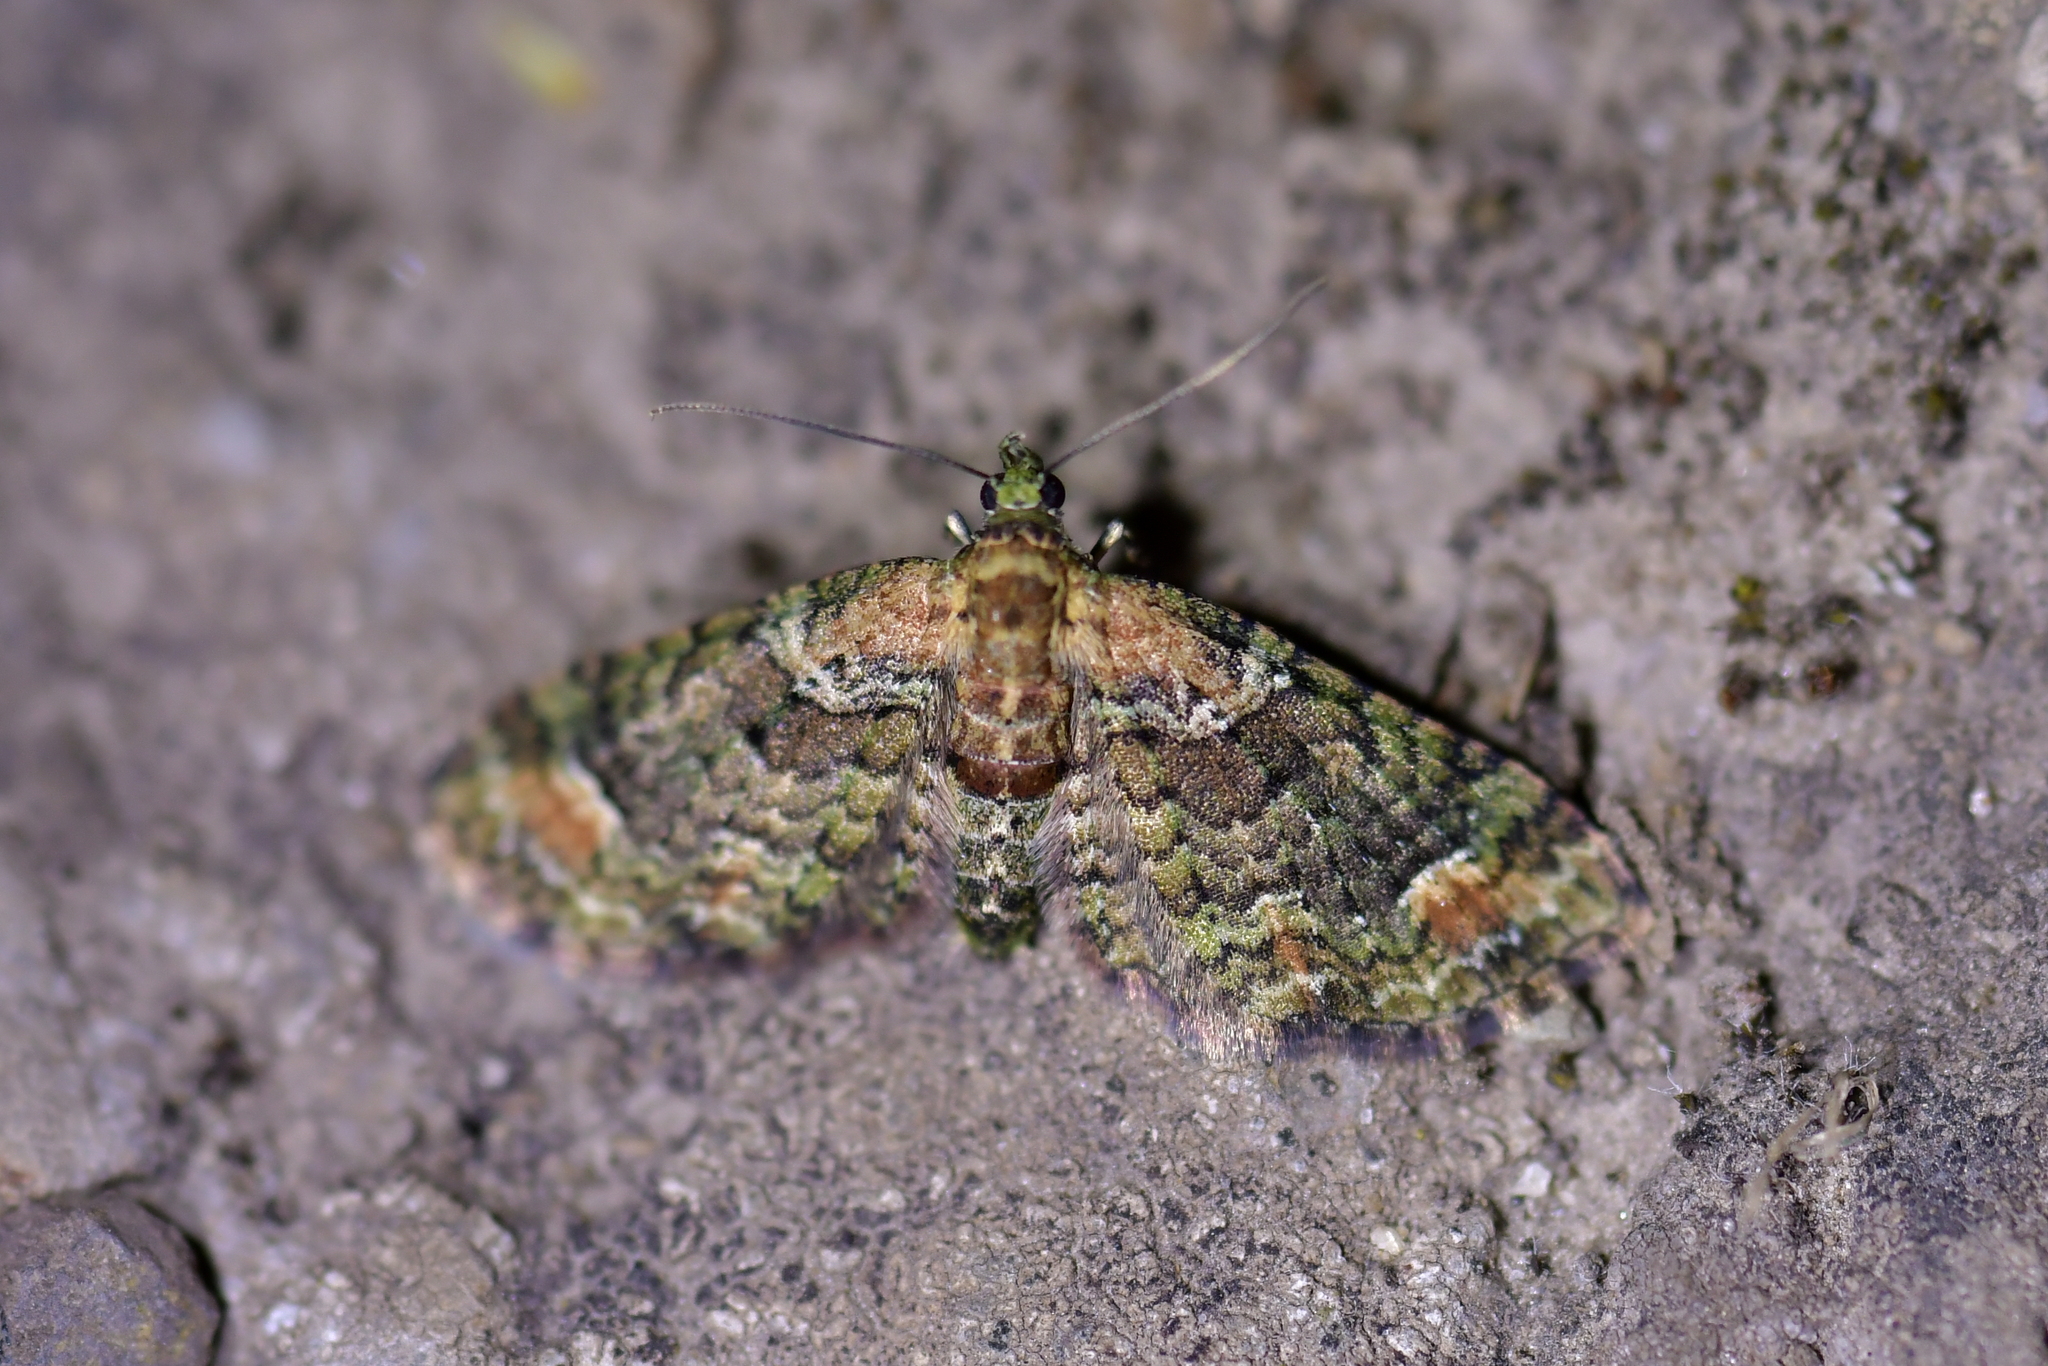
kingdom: Animalia
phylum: Arthropoda
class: Insecta
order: Lepidoptera
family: Geometridae
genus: Idaea
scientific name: Idaea mutanda
